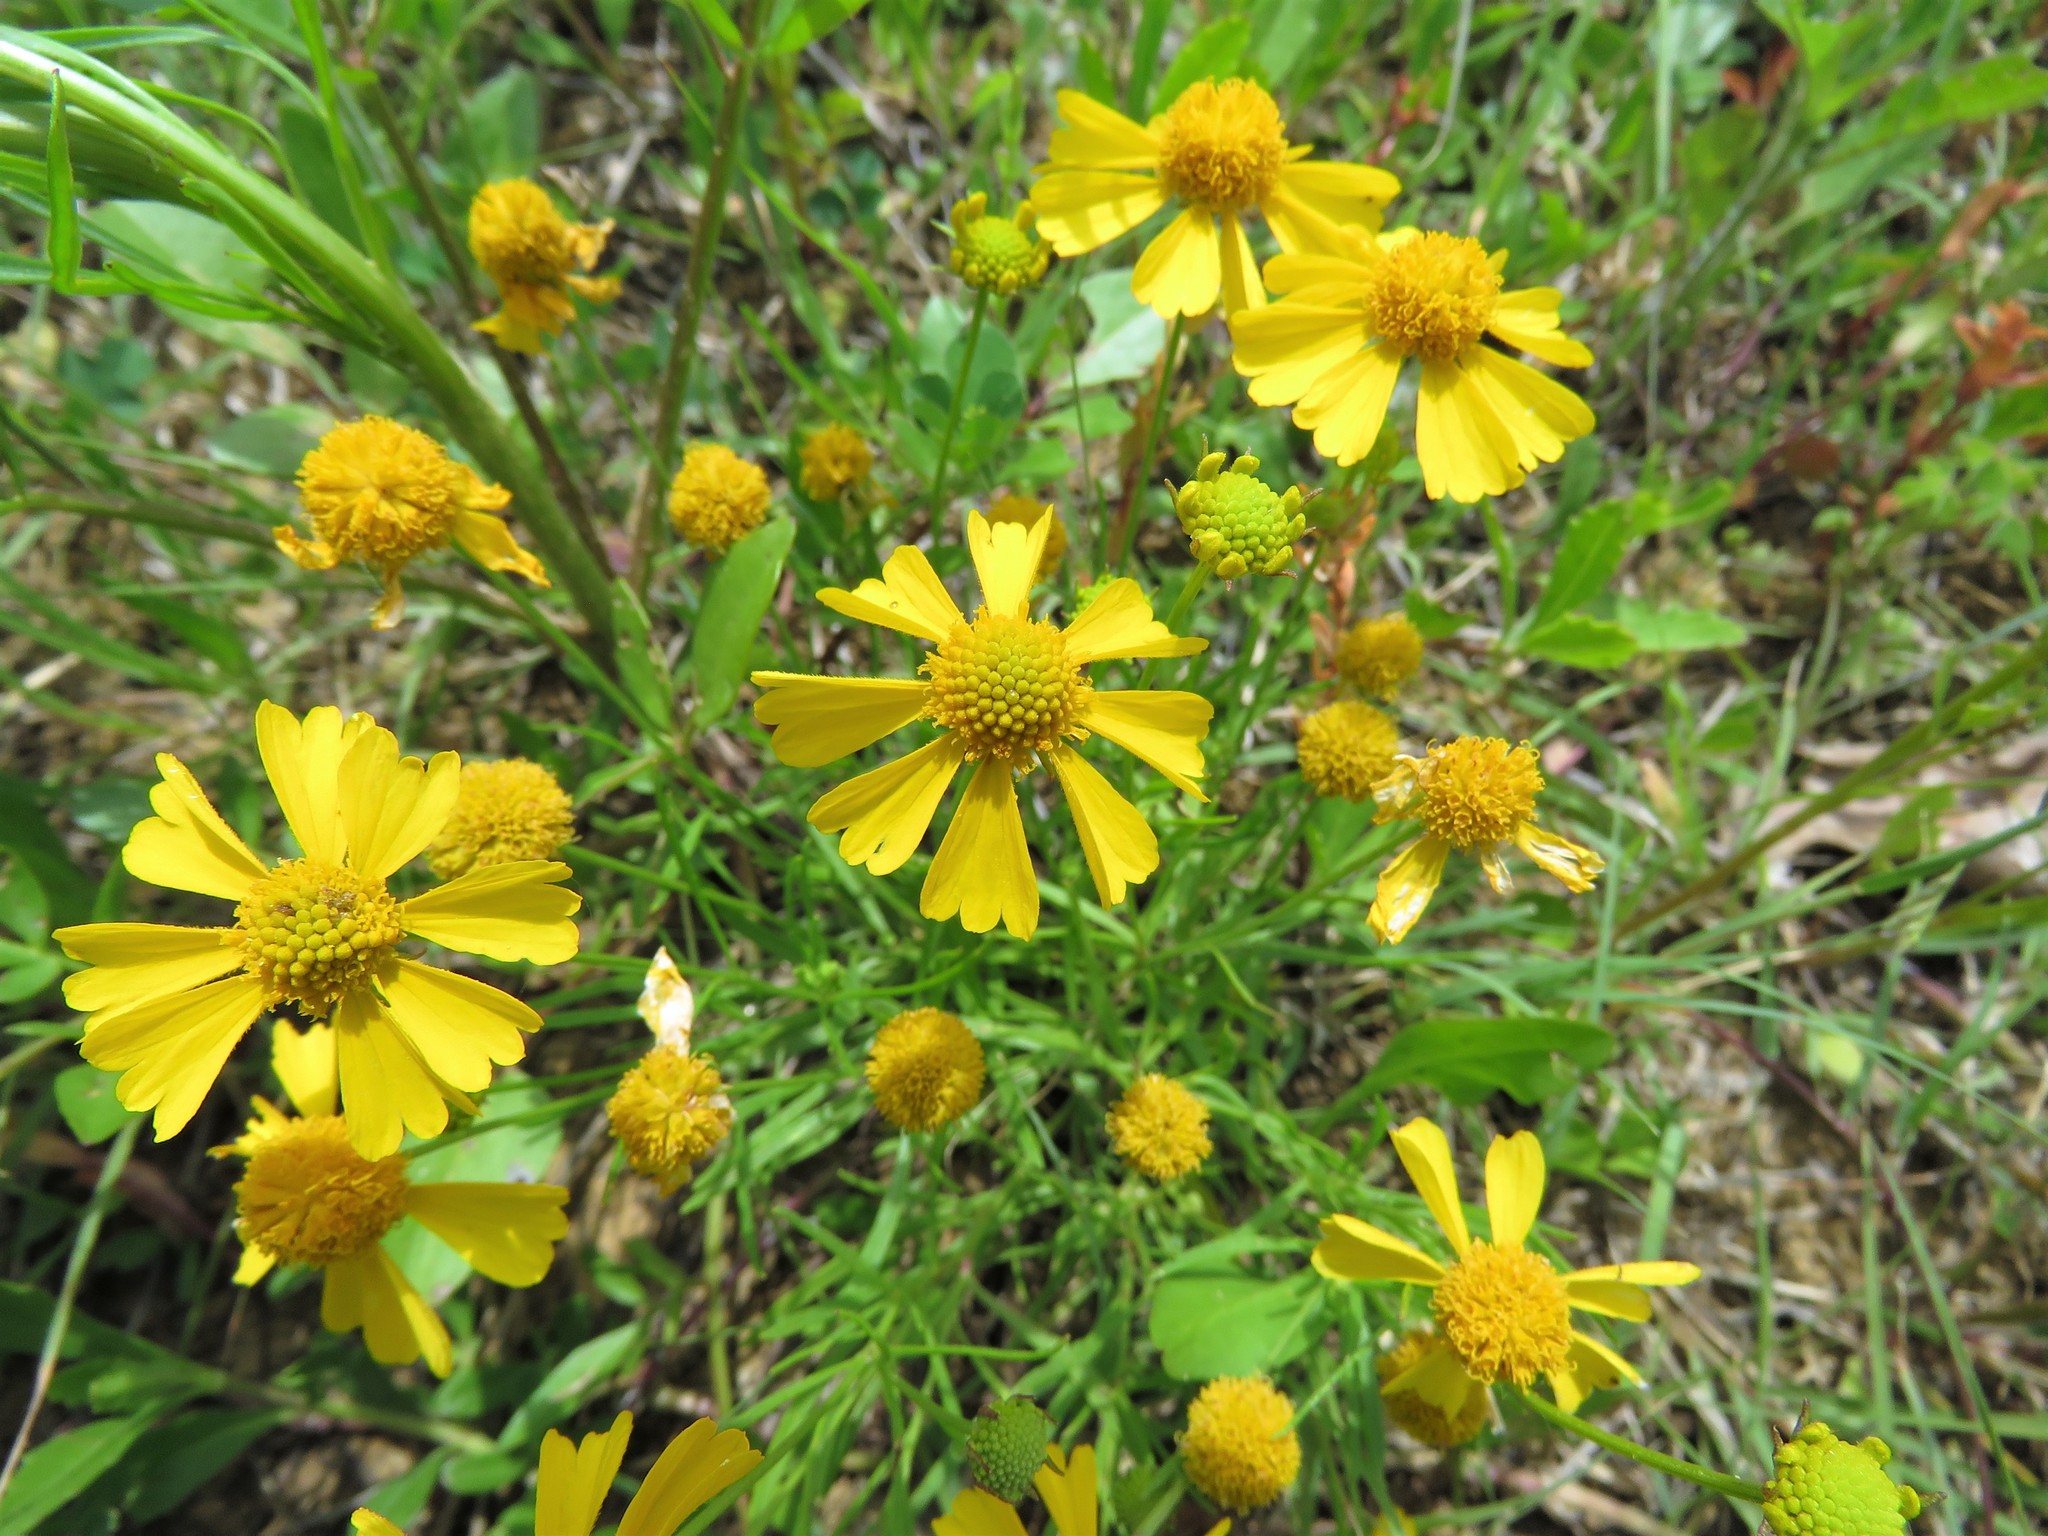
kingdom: Plantae
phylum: Tracheophyta
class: Magnoliopsida
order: Asterales
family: Asteraceae
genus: Helenium
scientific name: Helenium amarum
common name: Bitter sneezeweed
